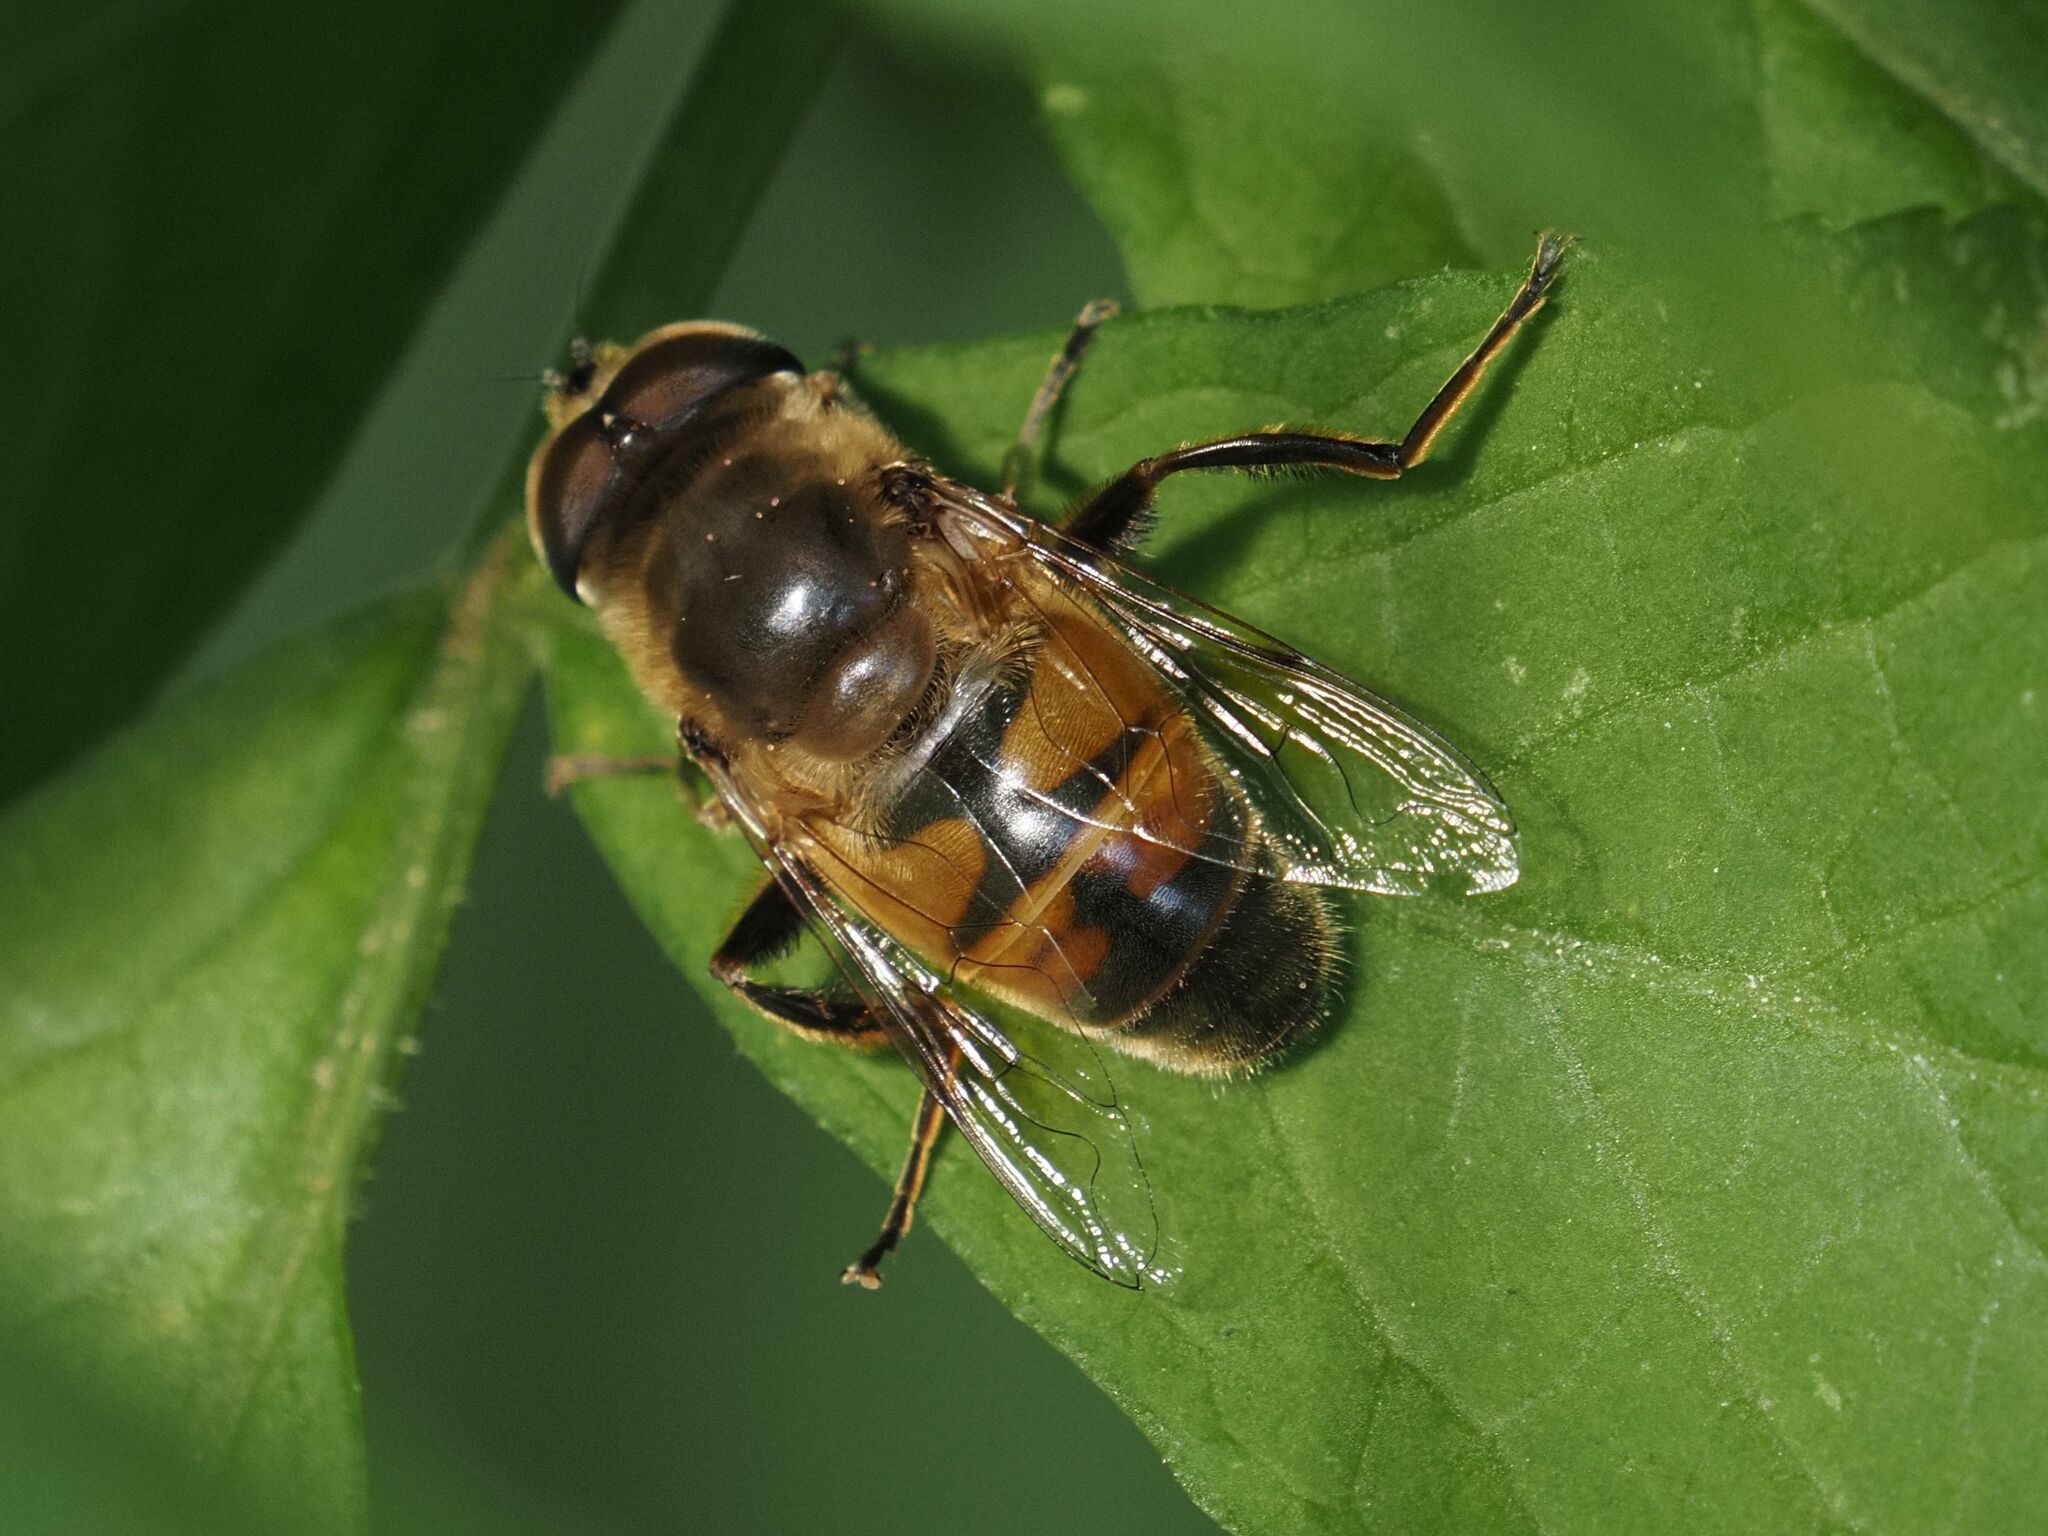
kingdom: Animalia
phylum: Arthropoda
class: Insecta
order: Diptera
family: Syrphidae
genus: Eristalis
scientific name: Eristalis tenax
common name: Drone fly
